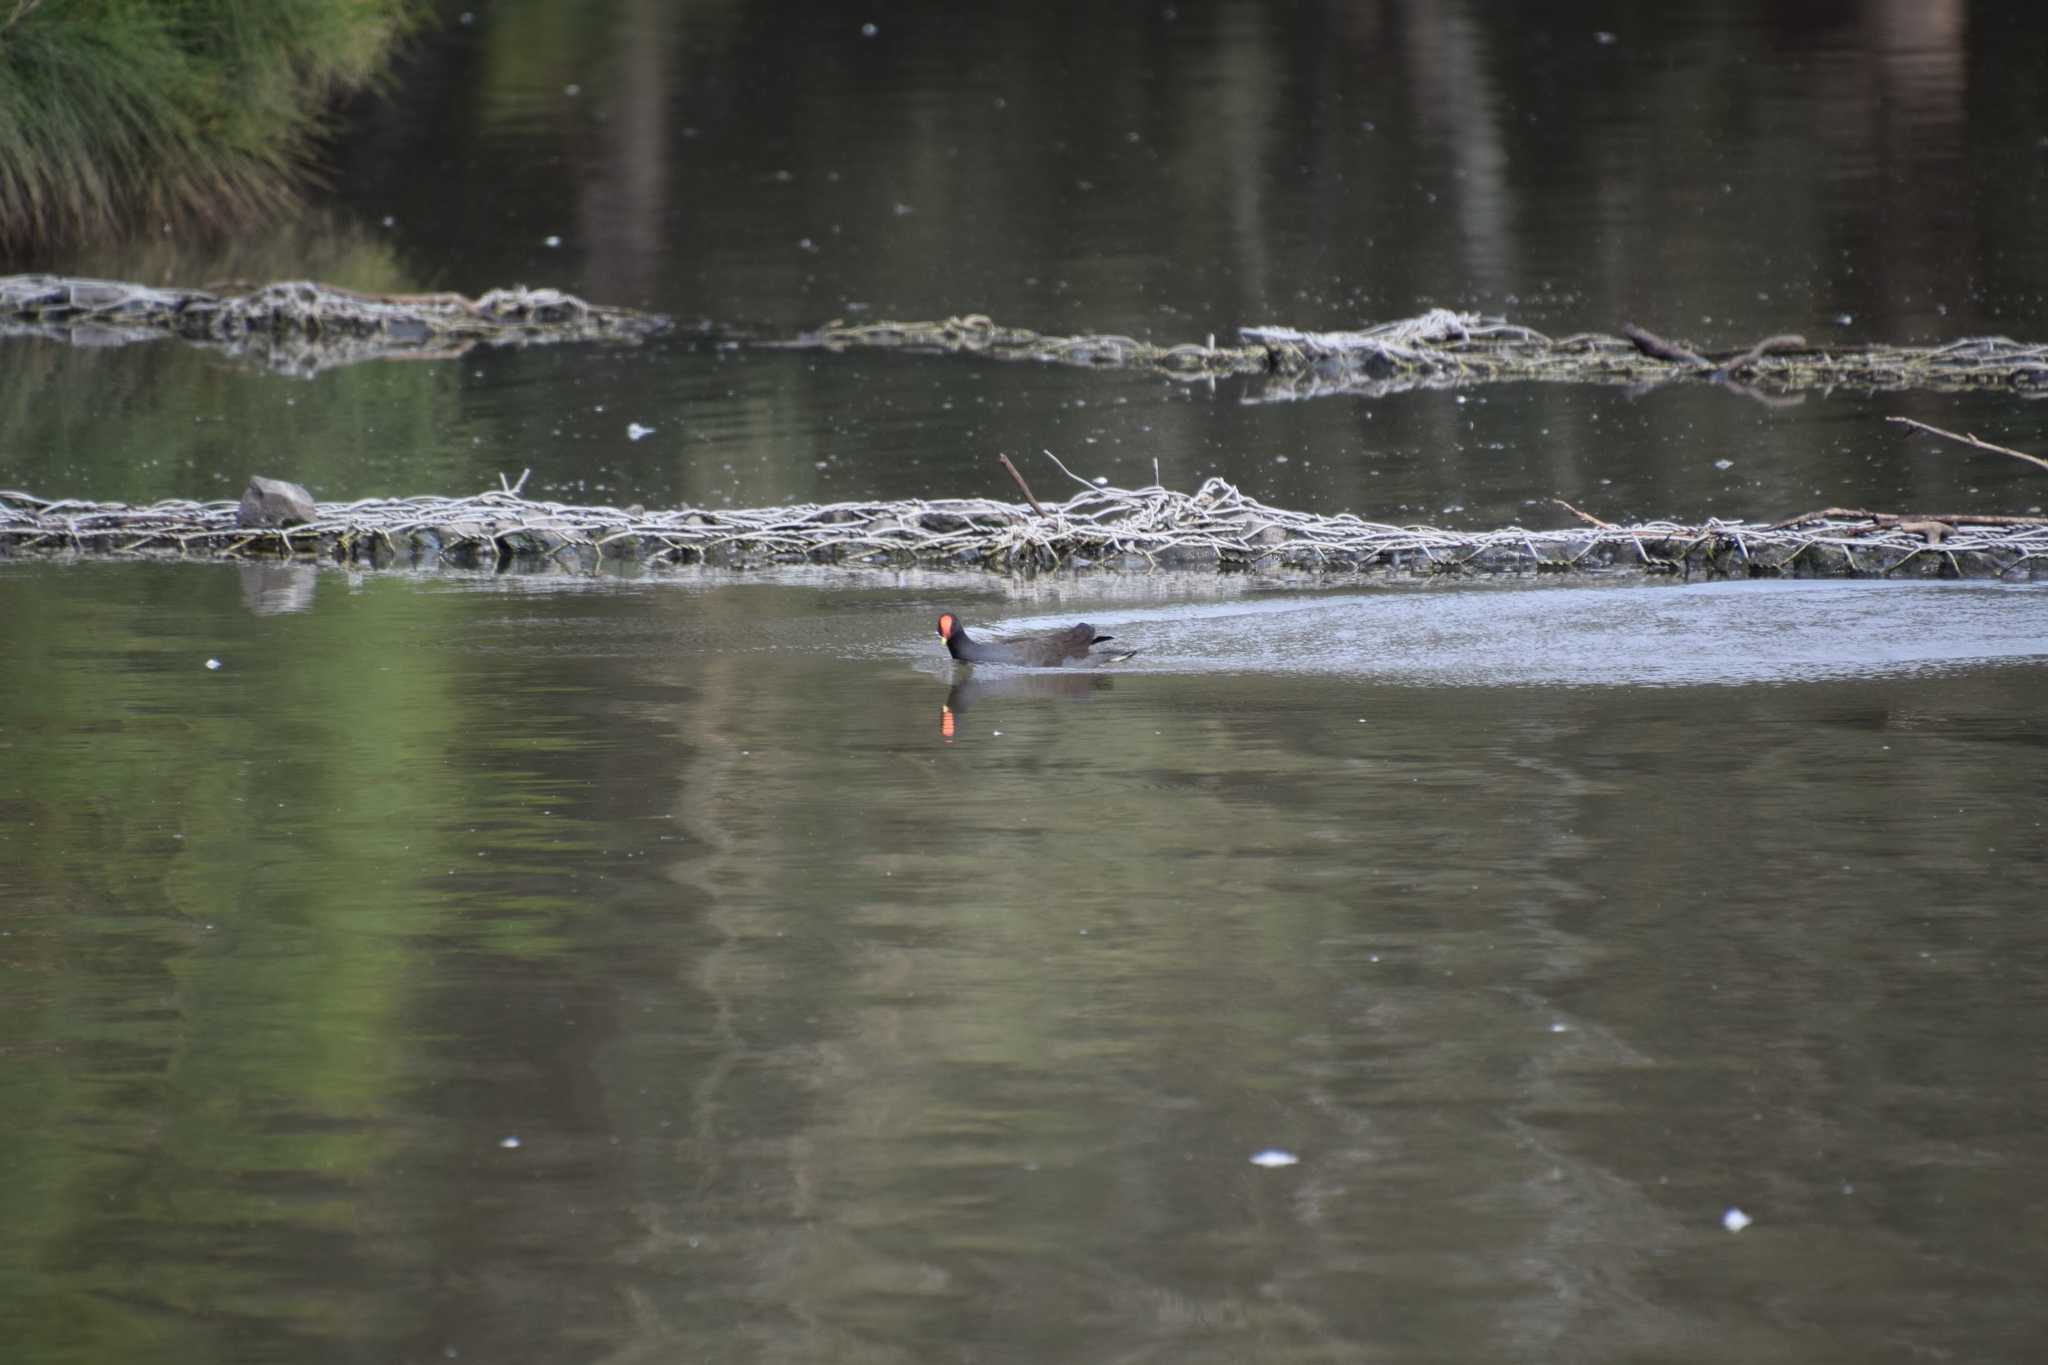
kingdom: Animalia
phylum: Chordata
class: Aves
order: Gruiformes
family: Rallidae
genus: Gallinula
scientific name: Gallinula tenebrosa
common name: Dusky moorhen
